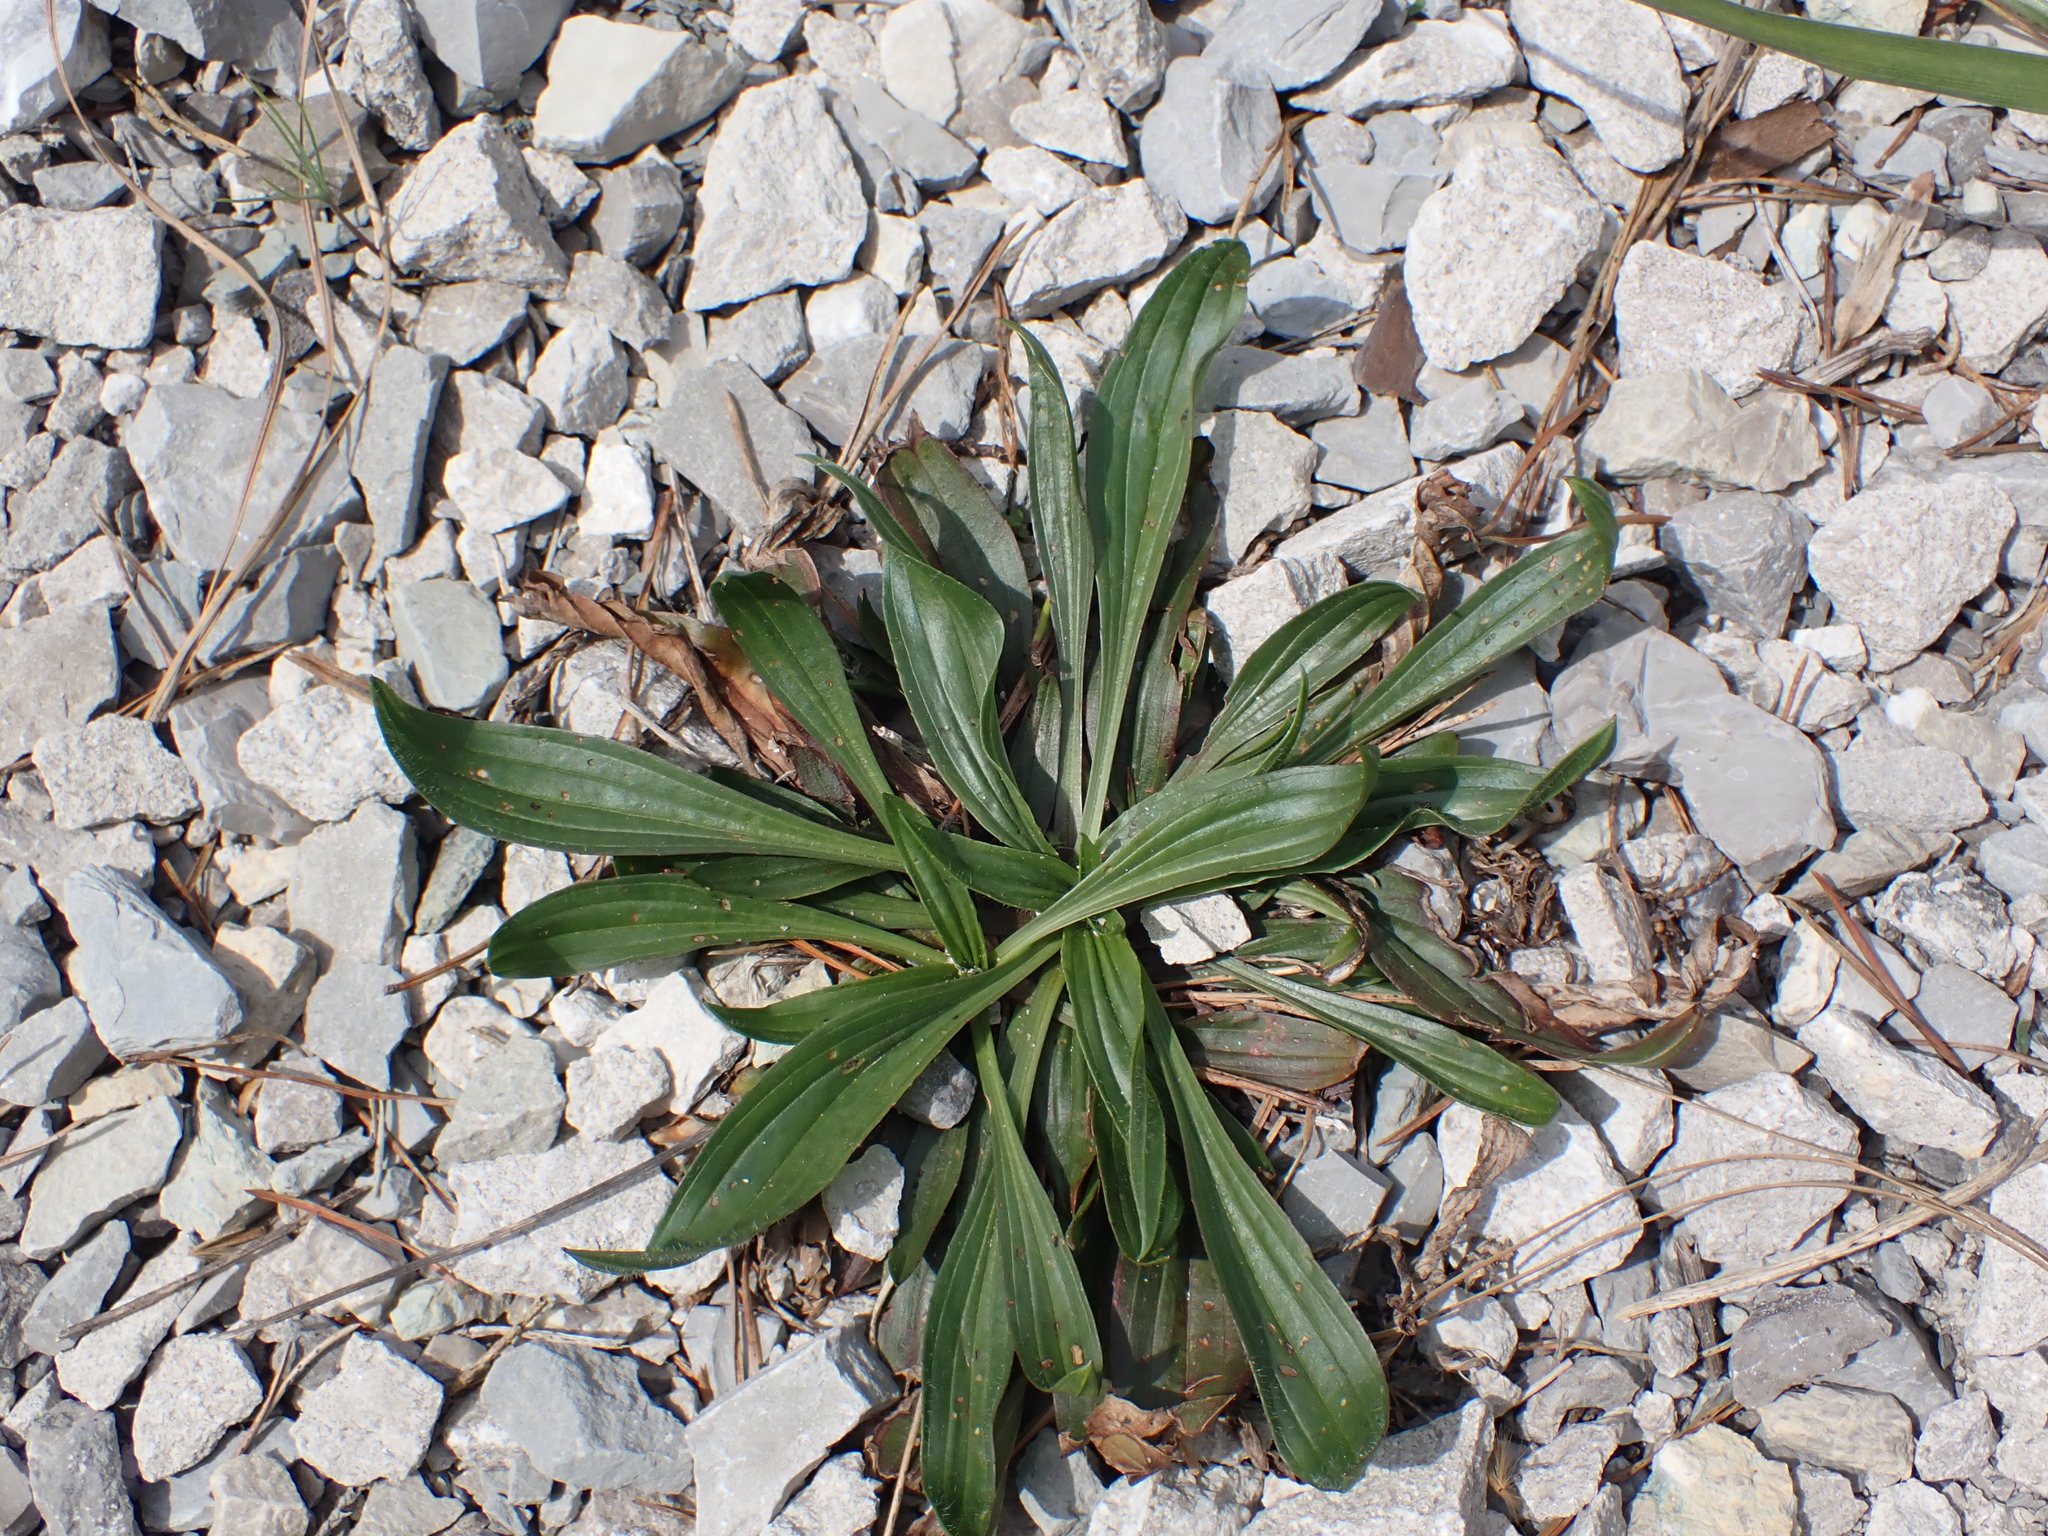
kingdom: Plantae
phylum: Tracheophyta
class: Magnoliopsida
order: Lamiales
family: Plantaginaceae
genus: Plantago
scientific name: Plantago lanceolata
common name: Ribwort plantain
